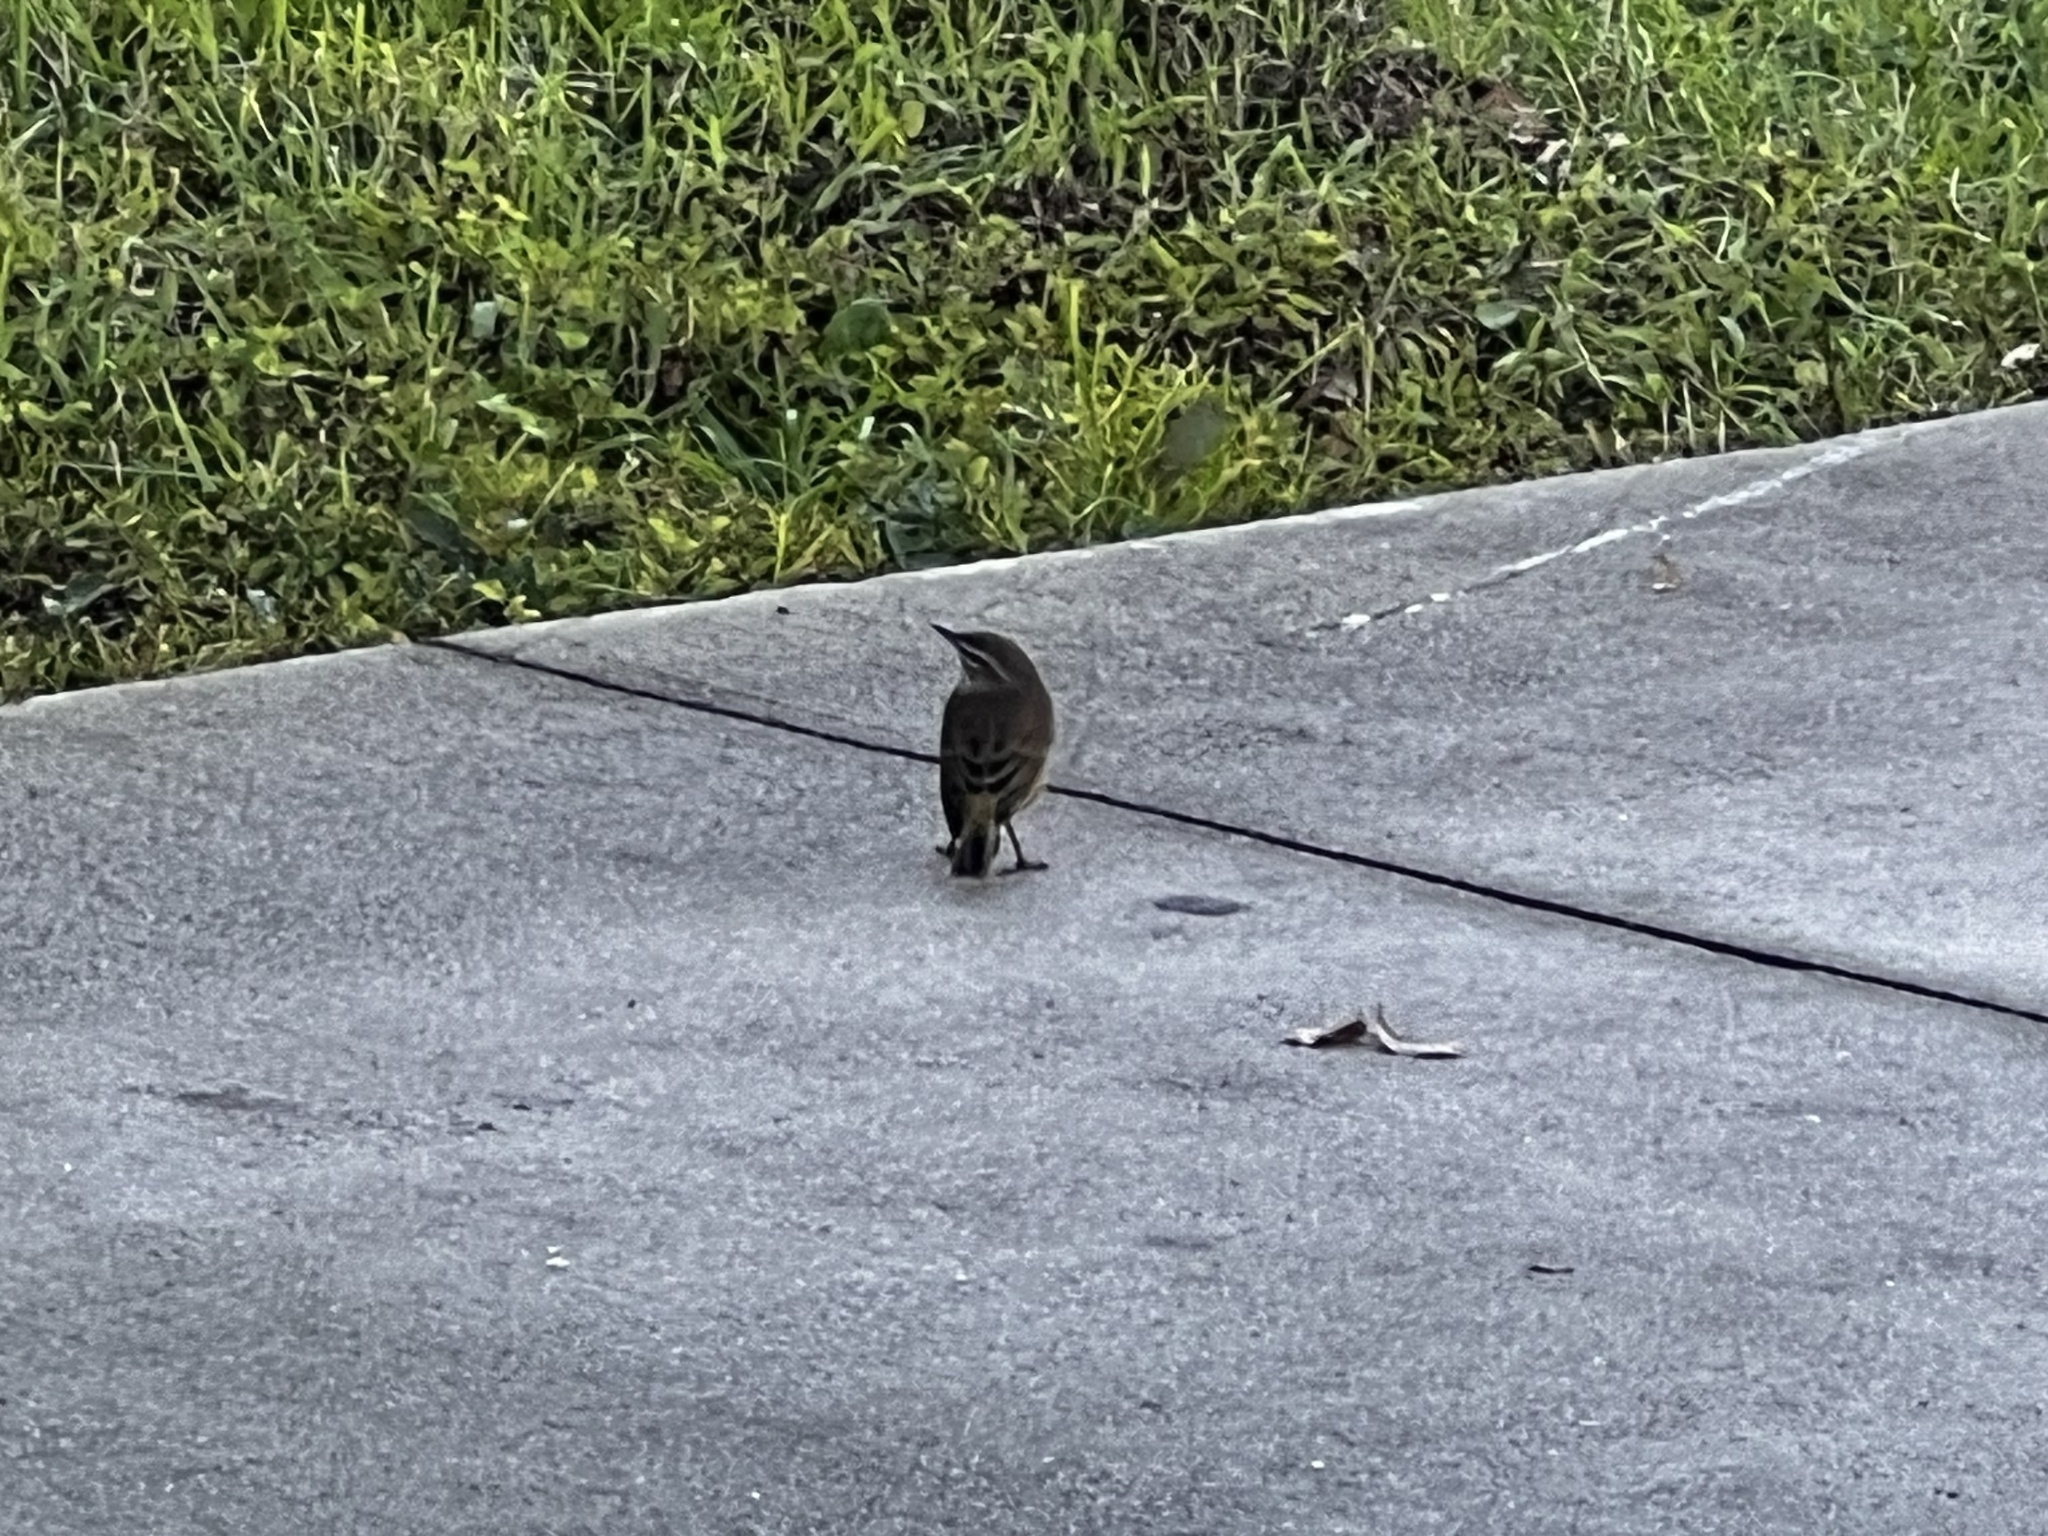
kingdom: Animalia
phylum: Chordata
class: Aves
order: Passeriformes
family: Parulidae
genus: Setophaga
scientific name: Setophaga palmarum
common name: Palm warbler
